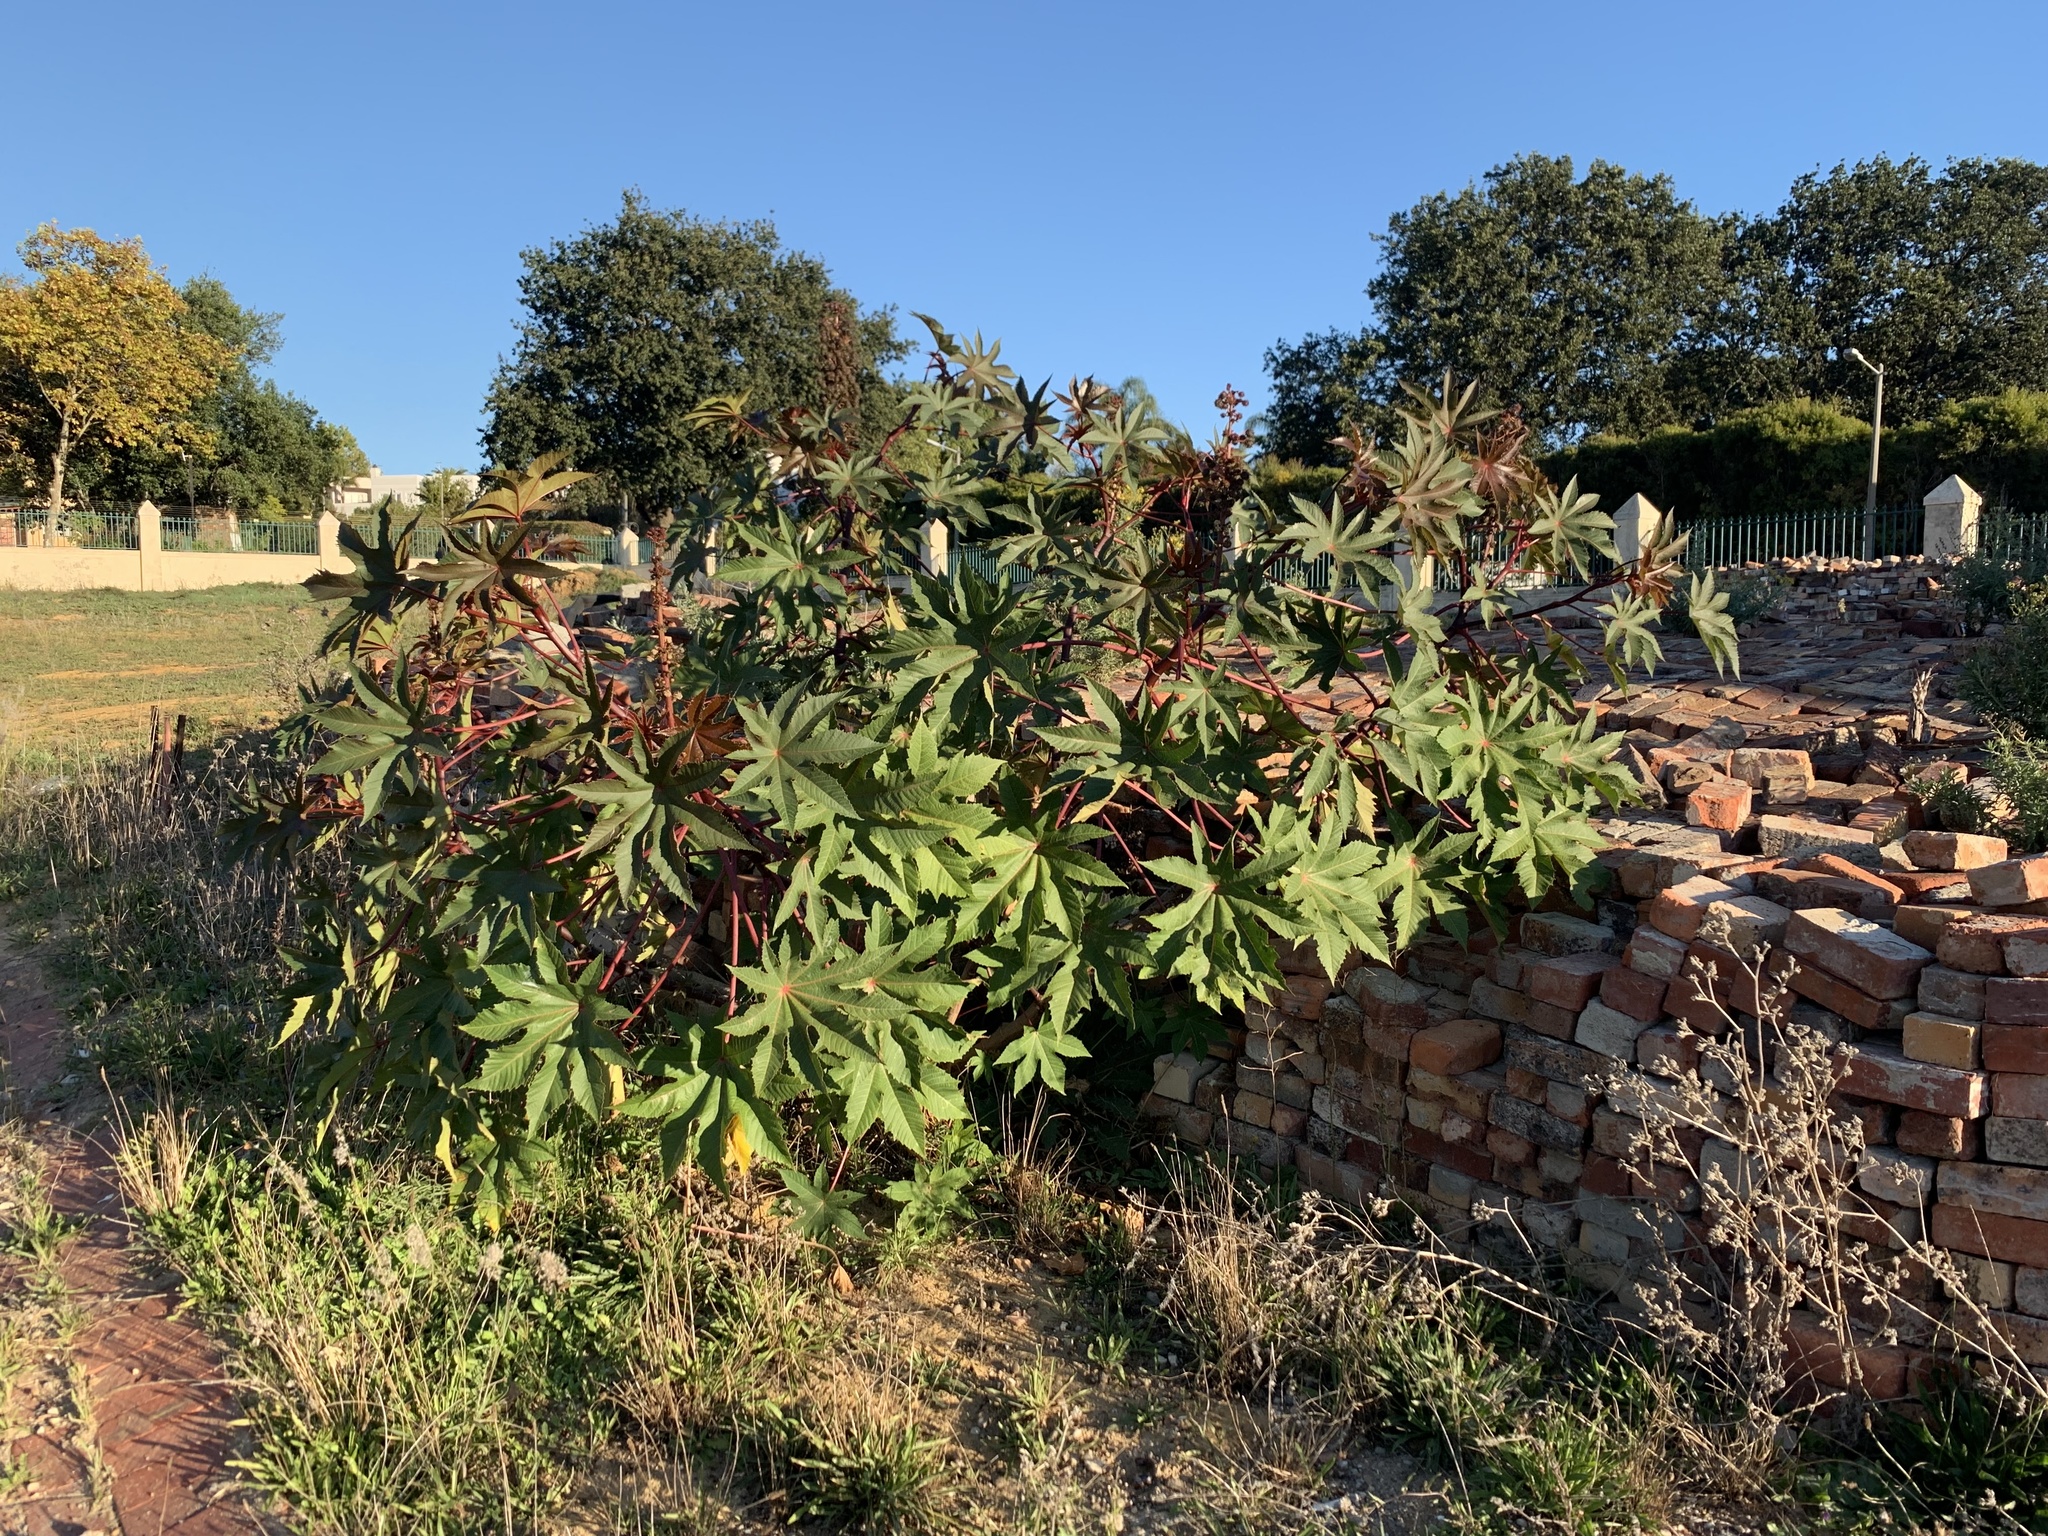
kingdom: Plantae
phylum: Tracheophyta
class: Magnoliopsida
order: Malpighiales
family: Euphorbiaceae
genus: Ricinus
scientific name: Ricinus communis
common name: Castor-oil-plant
